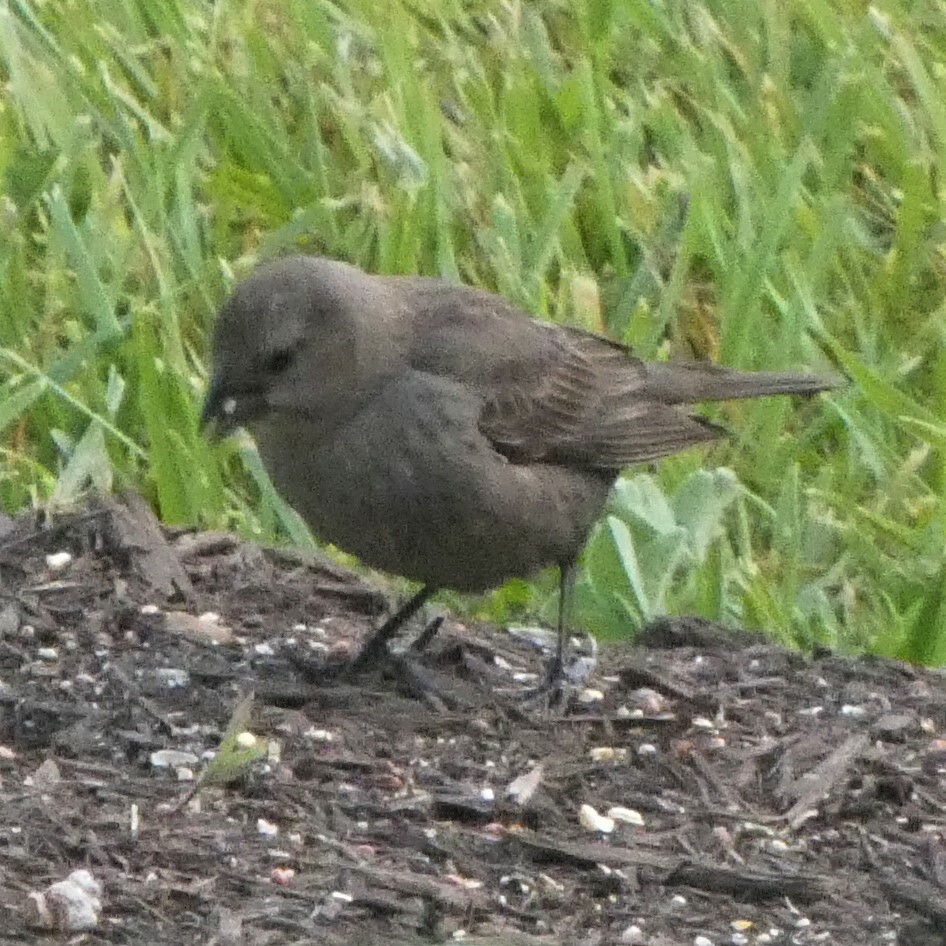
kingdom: Animalia
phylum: Chordata
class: Aves
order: Passeriformes
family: Icteridae
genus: Molothrus
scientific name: Molothrus ater
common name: Brown-headed cowbird
